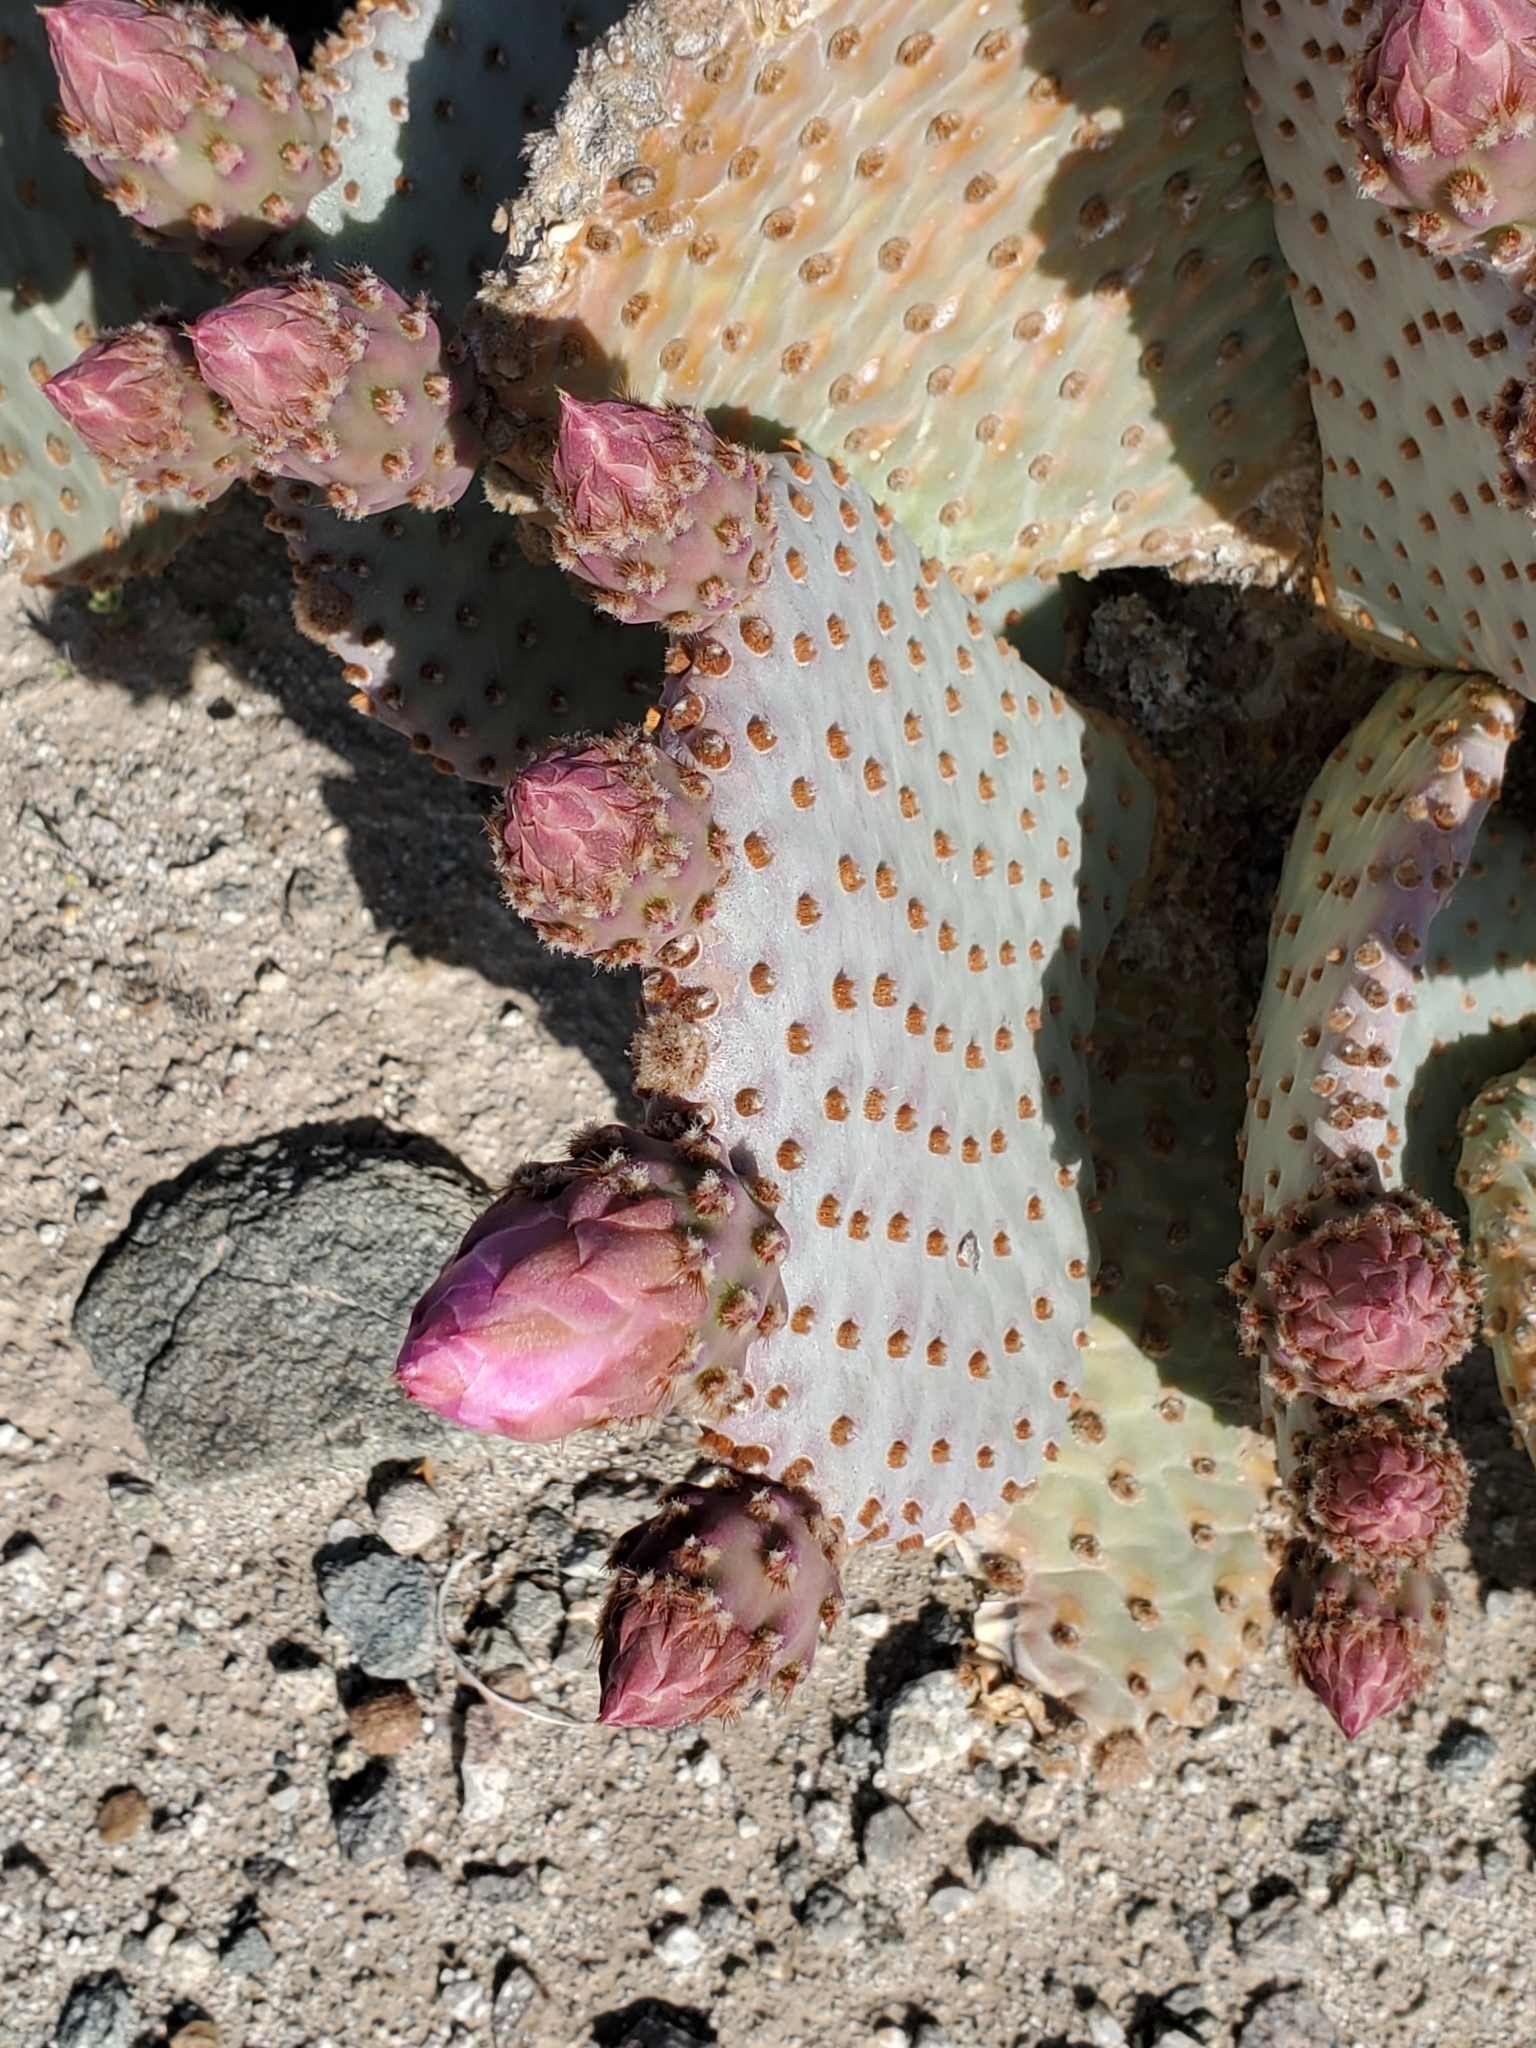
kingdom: Plantae
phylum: Tracheophyta
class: Magnoliopsida
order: Caryophyllales
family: Cactaceae
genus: Opuntia
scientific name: Opuntia basilaris
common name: Beavertail prickly-pear
